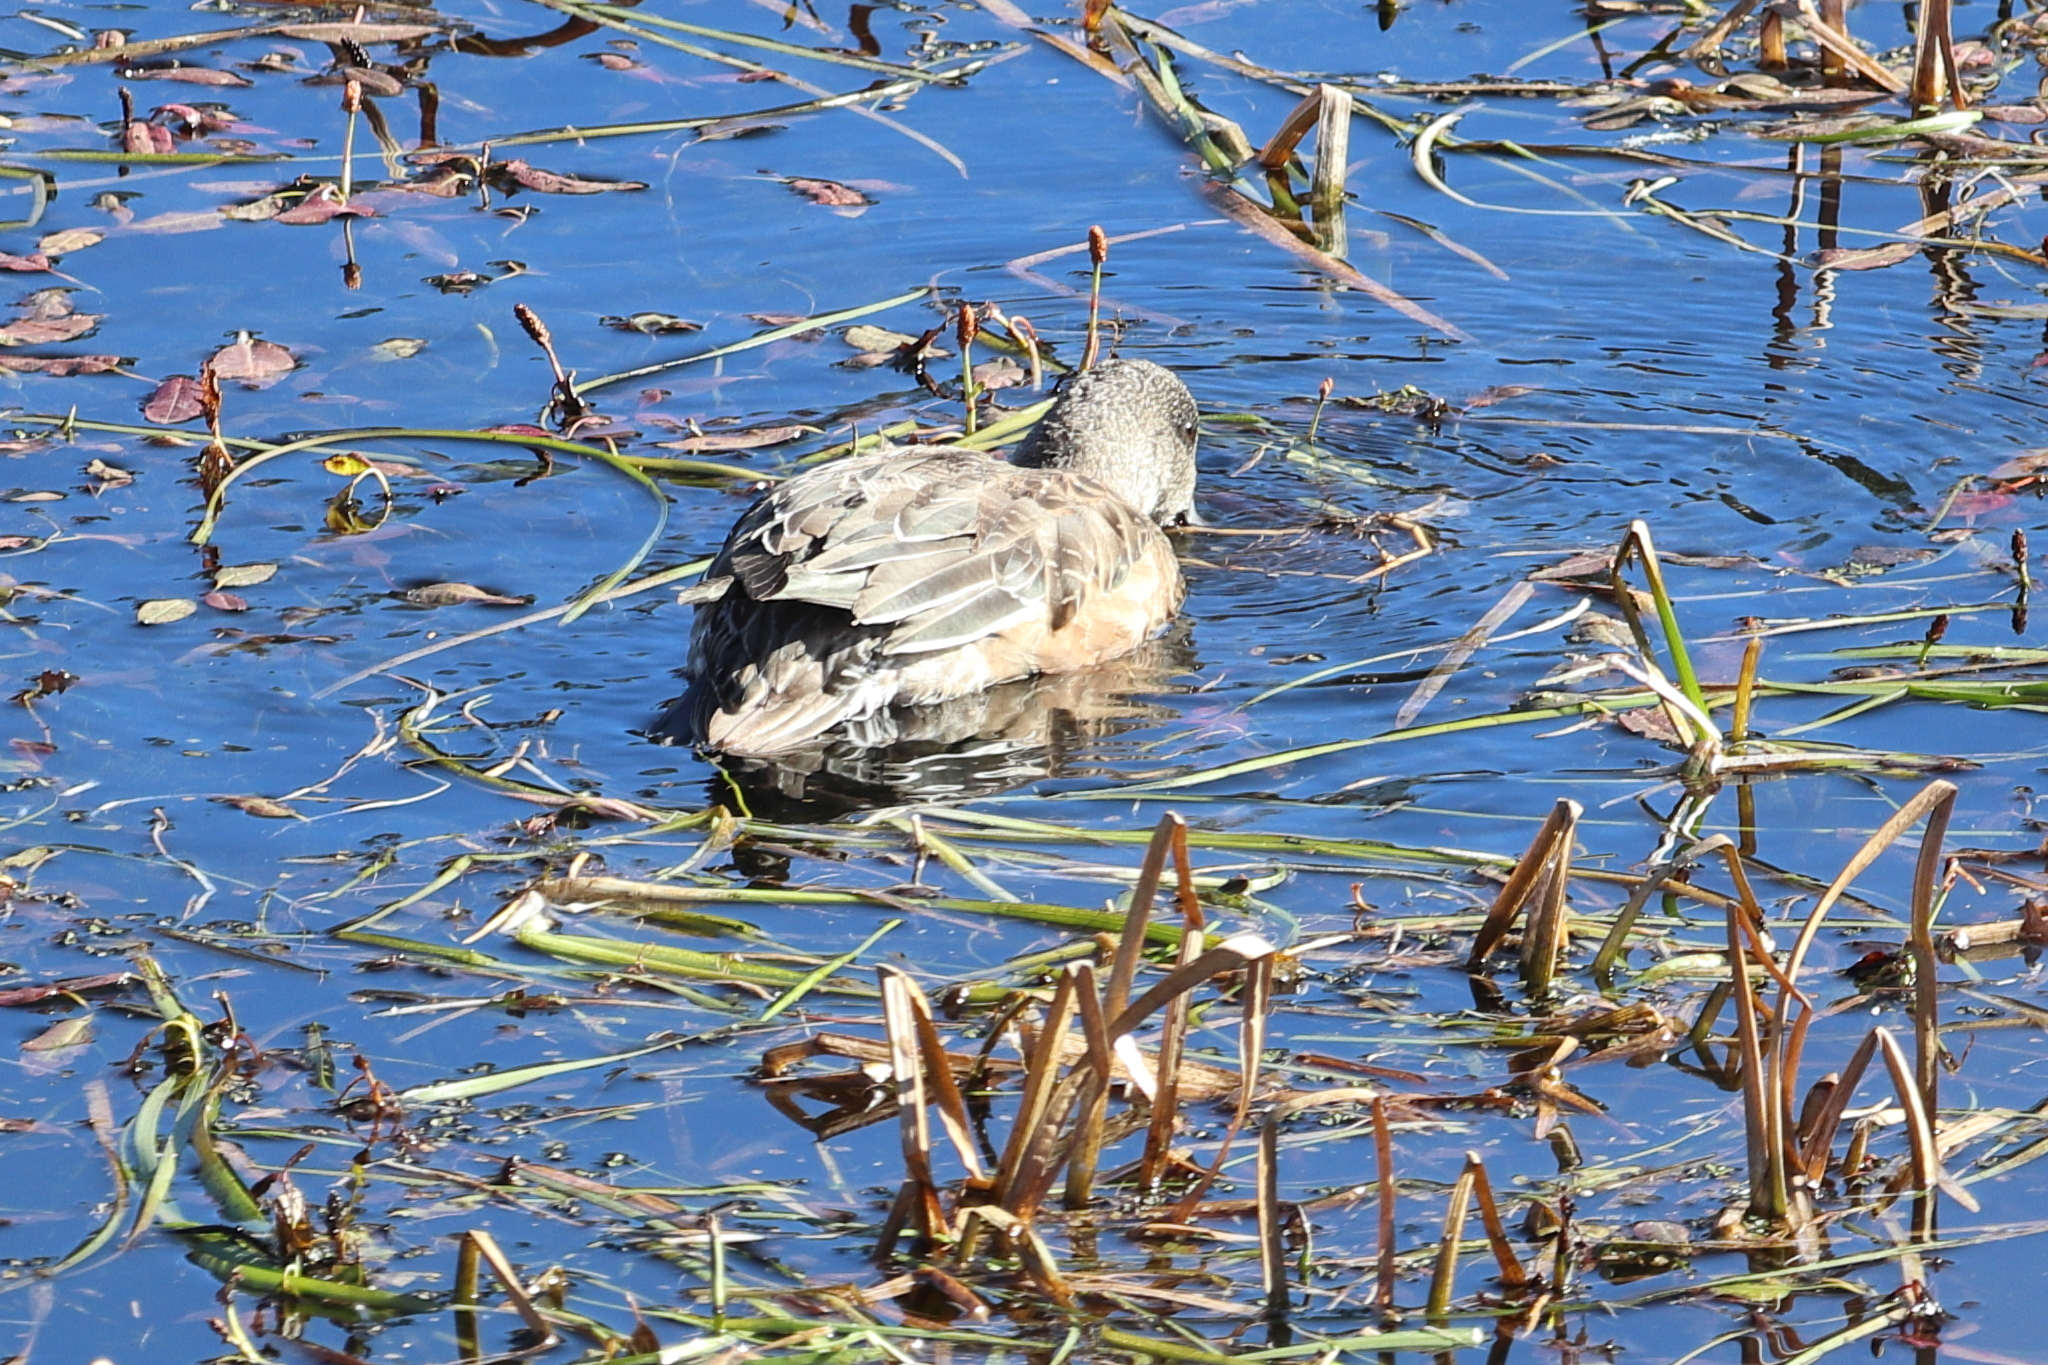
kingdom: Animalia
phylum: Chordata
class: Aves
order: Anseriformes
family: Anatidae
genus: Mareca
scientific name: Mareca americana
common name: American wigeon
